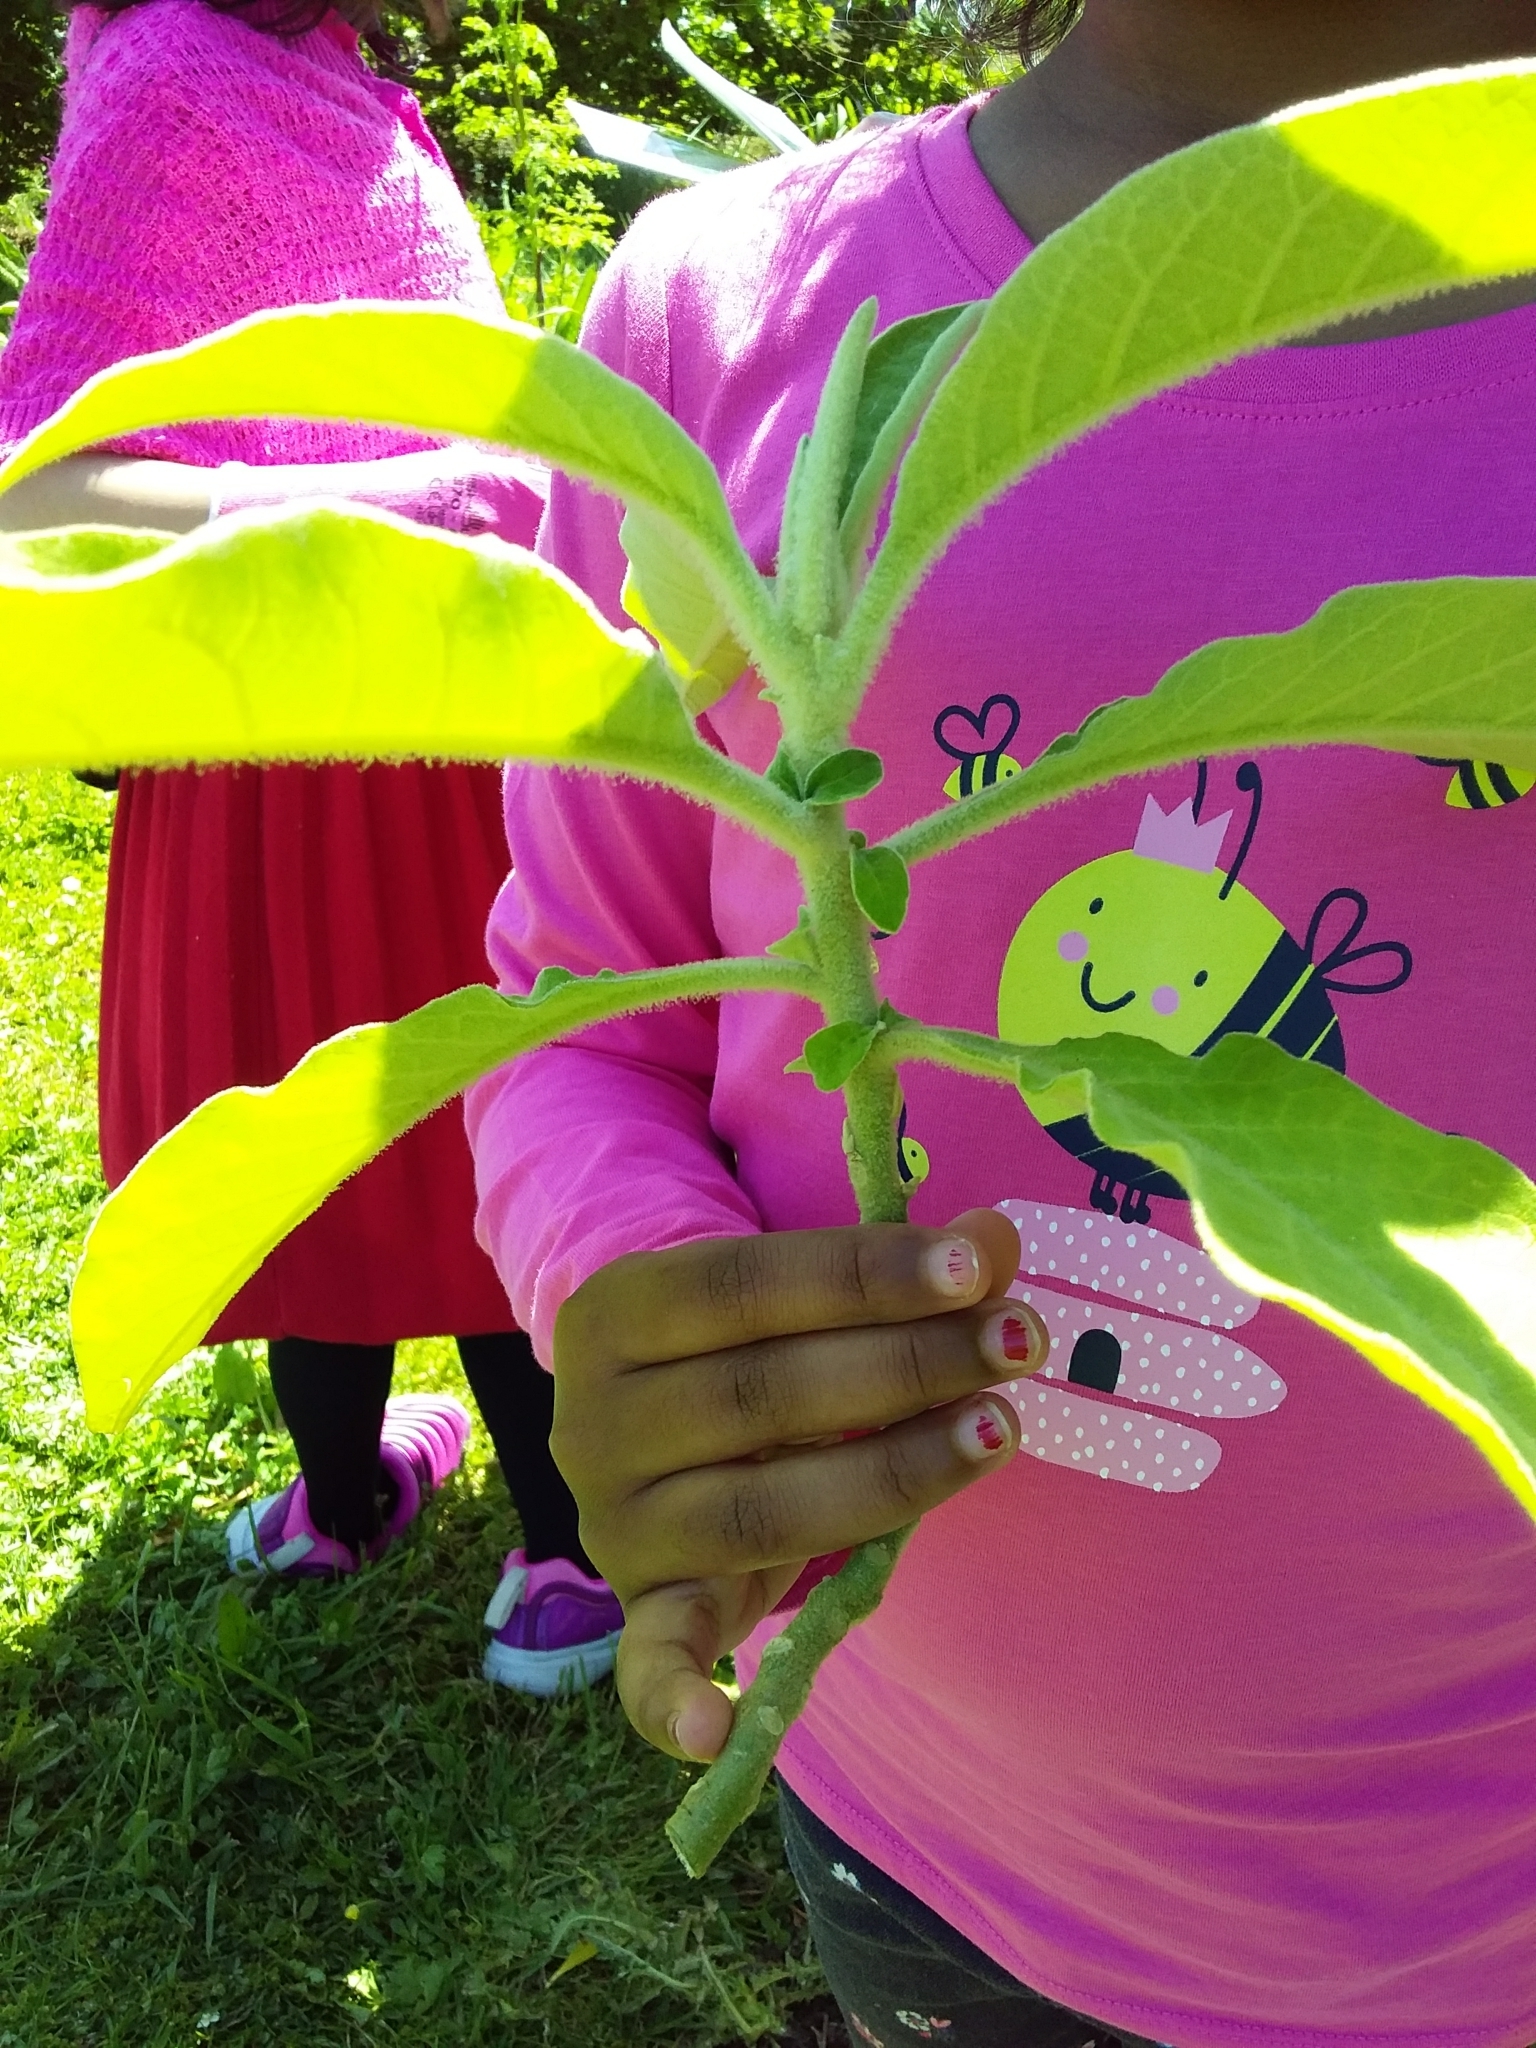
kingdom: Plantae
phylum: Tracheophyta
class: Magnoliopsida
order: Solanales
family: Solanaceae
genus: Solanum
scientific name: Solanum mauritianum
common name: Earleaf nightshade
